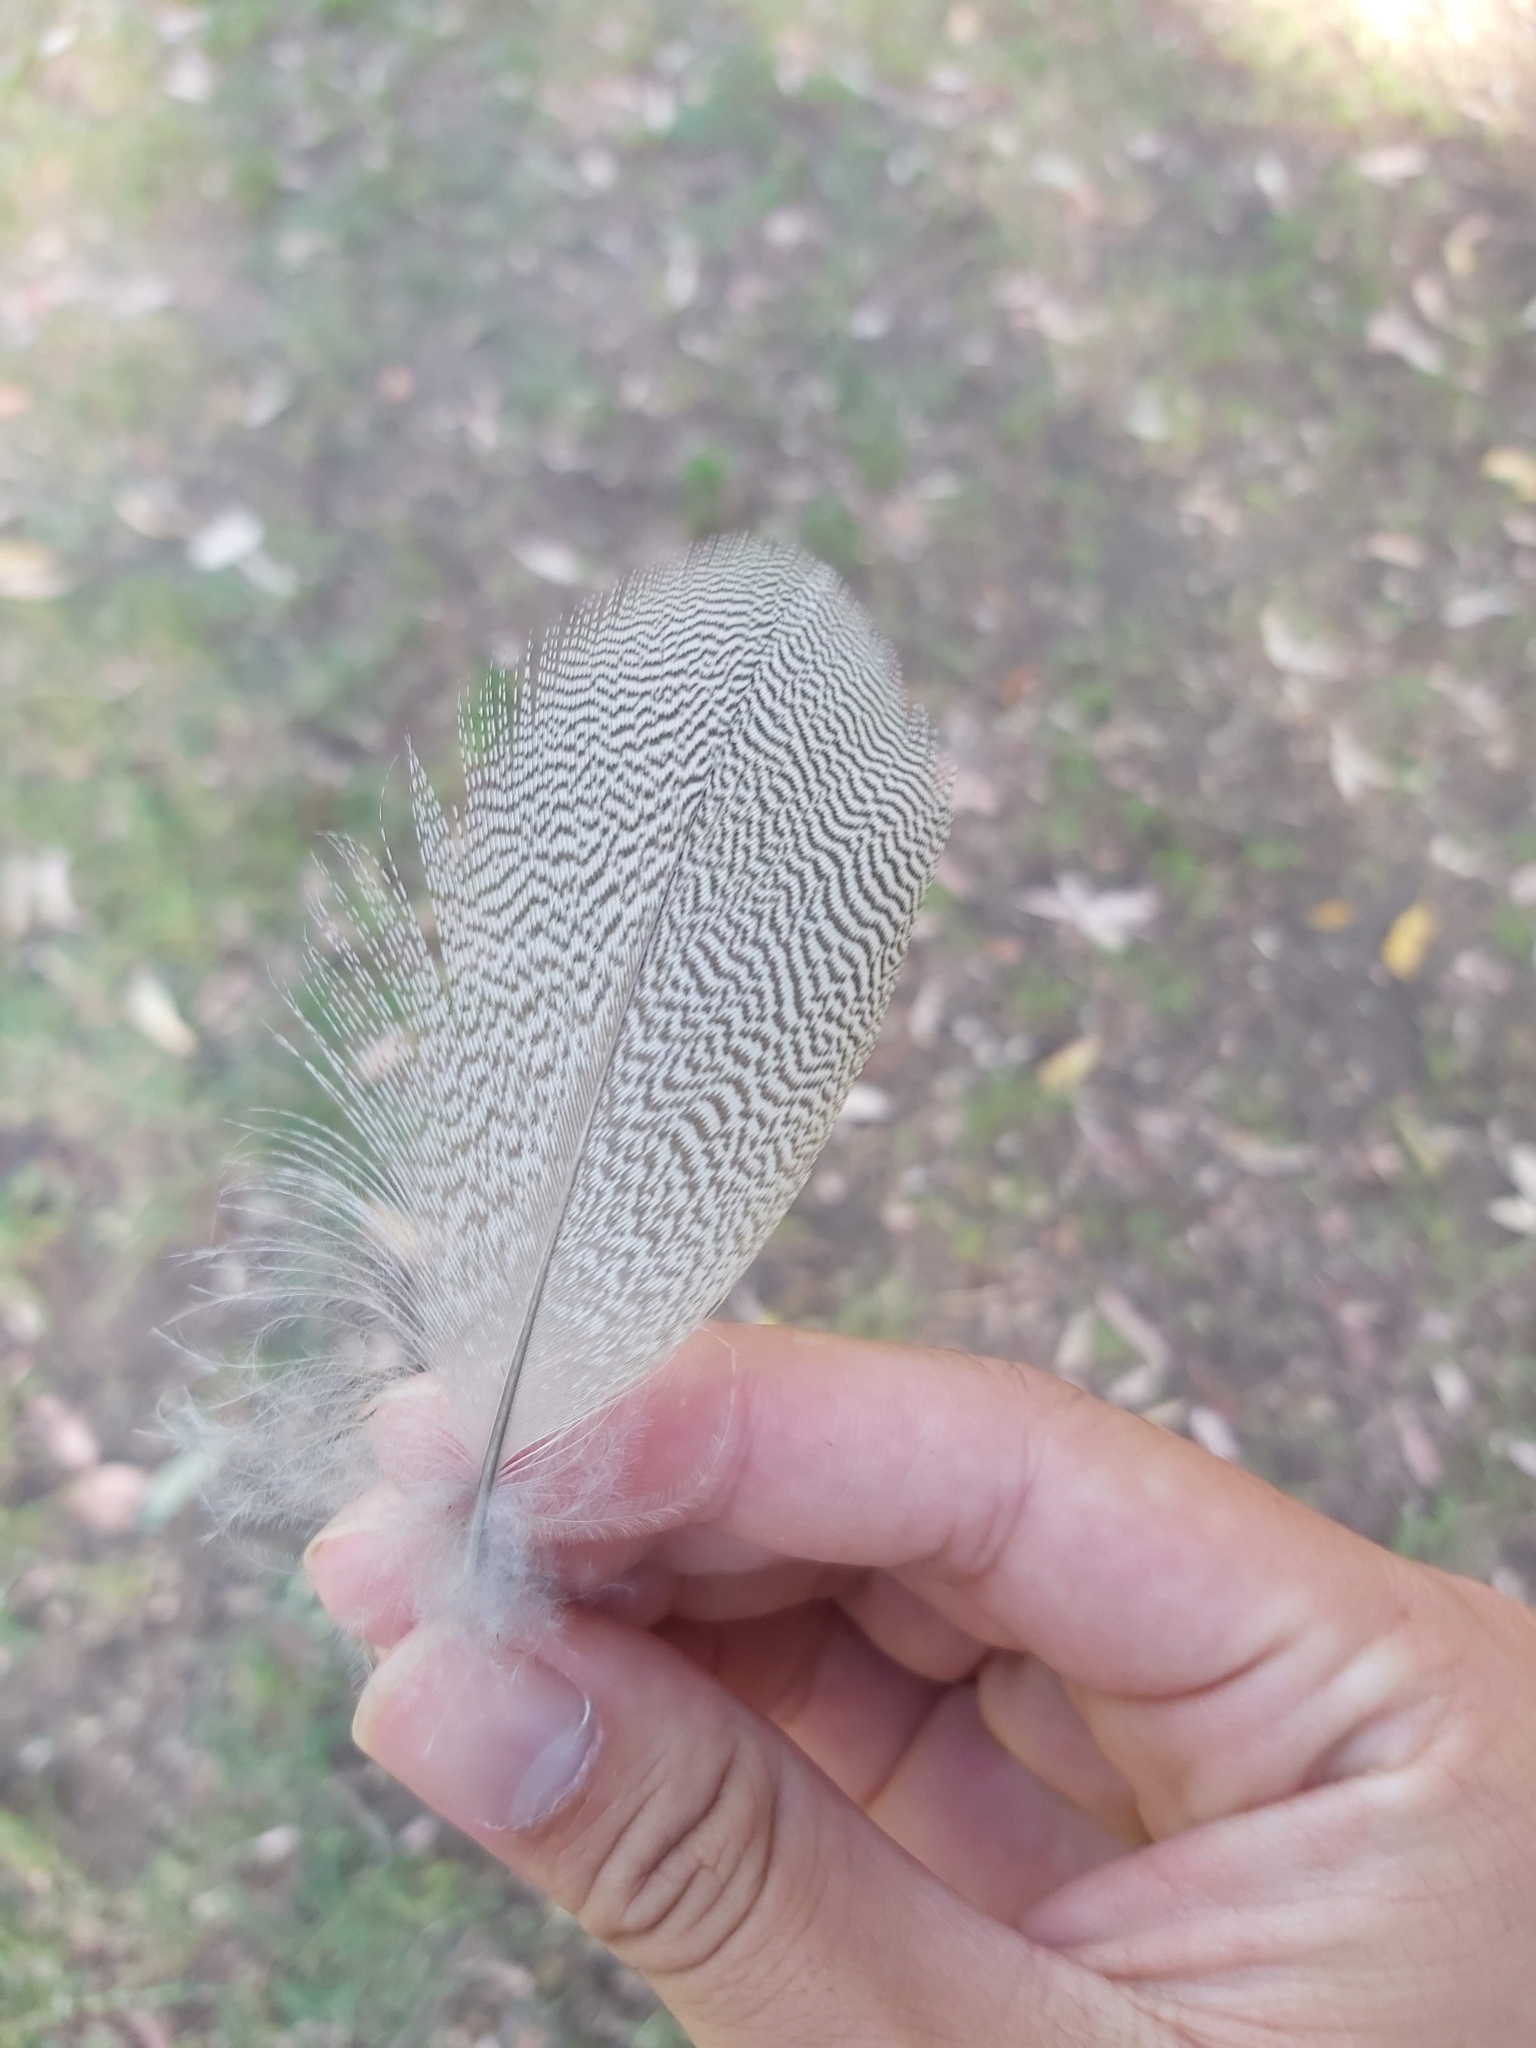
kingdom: Animalia
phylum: Chordata
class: Aves
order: Anseriformes
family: Anatidae
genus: Chenonetta
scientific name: Chenonetta jubata
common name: Maned duck
